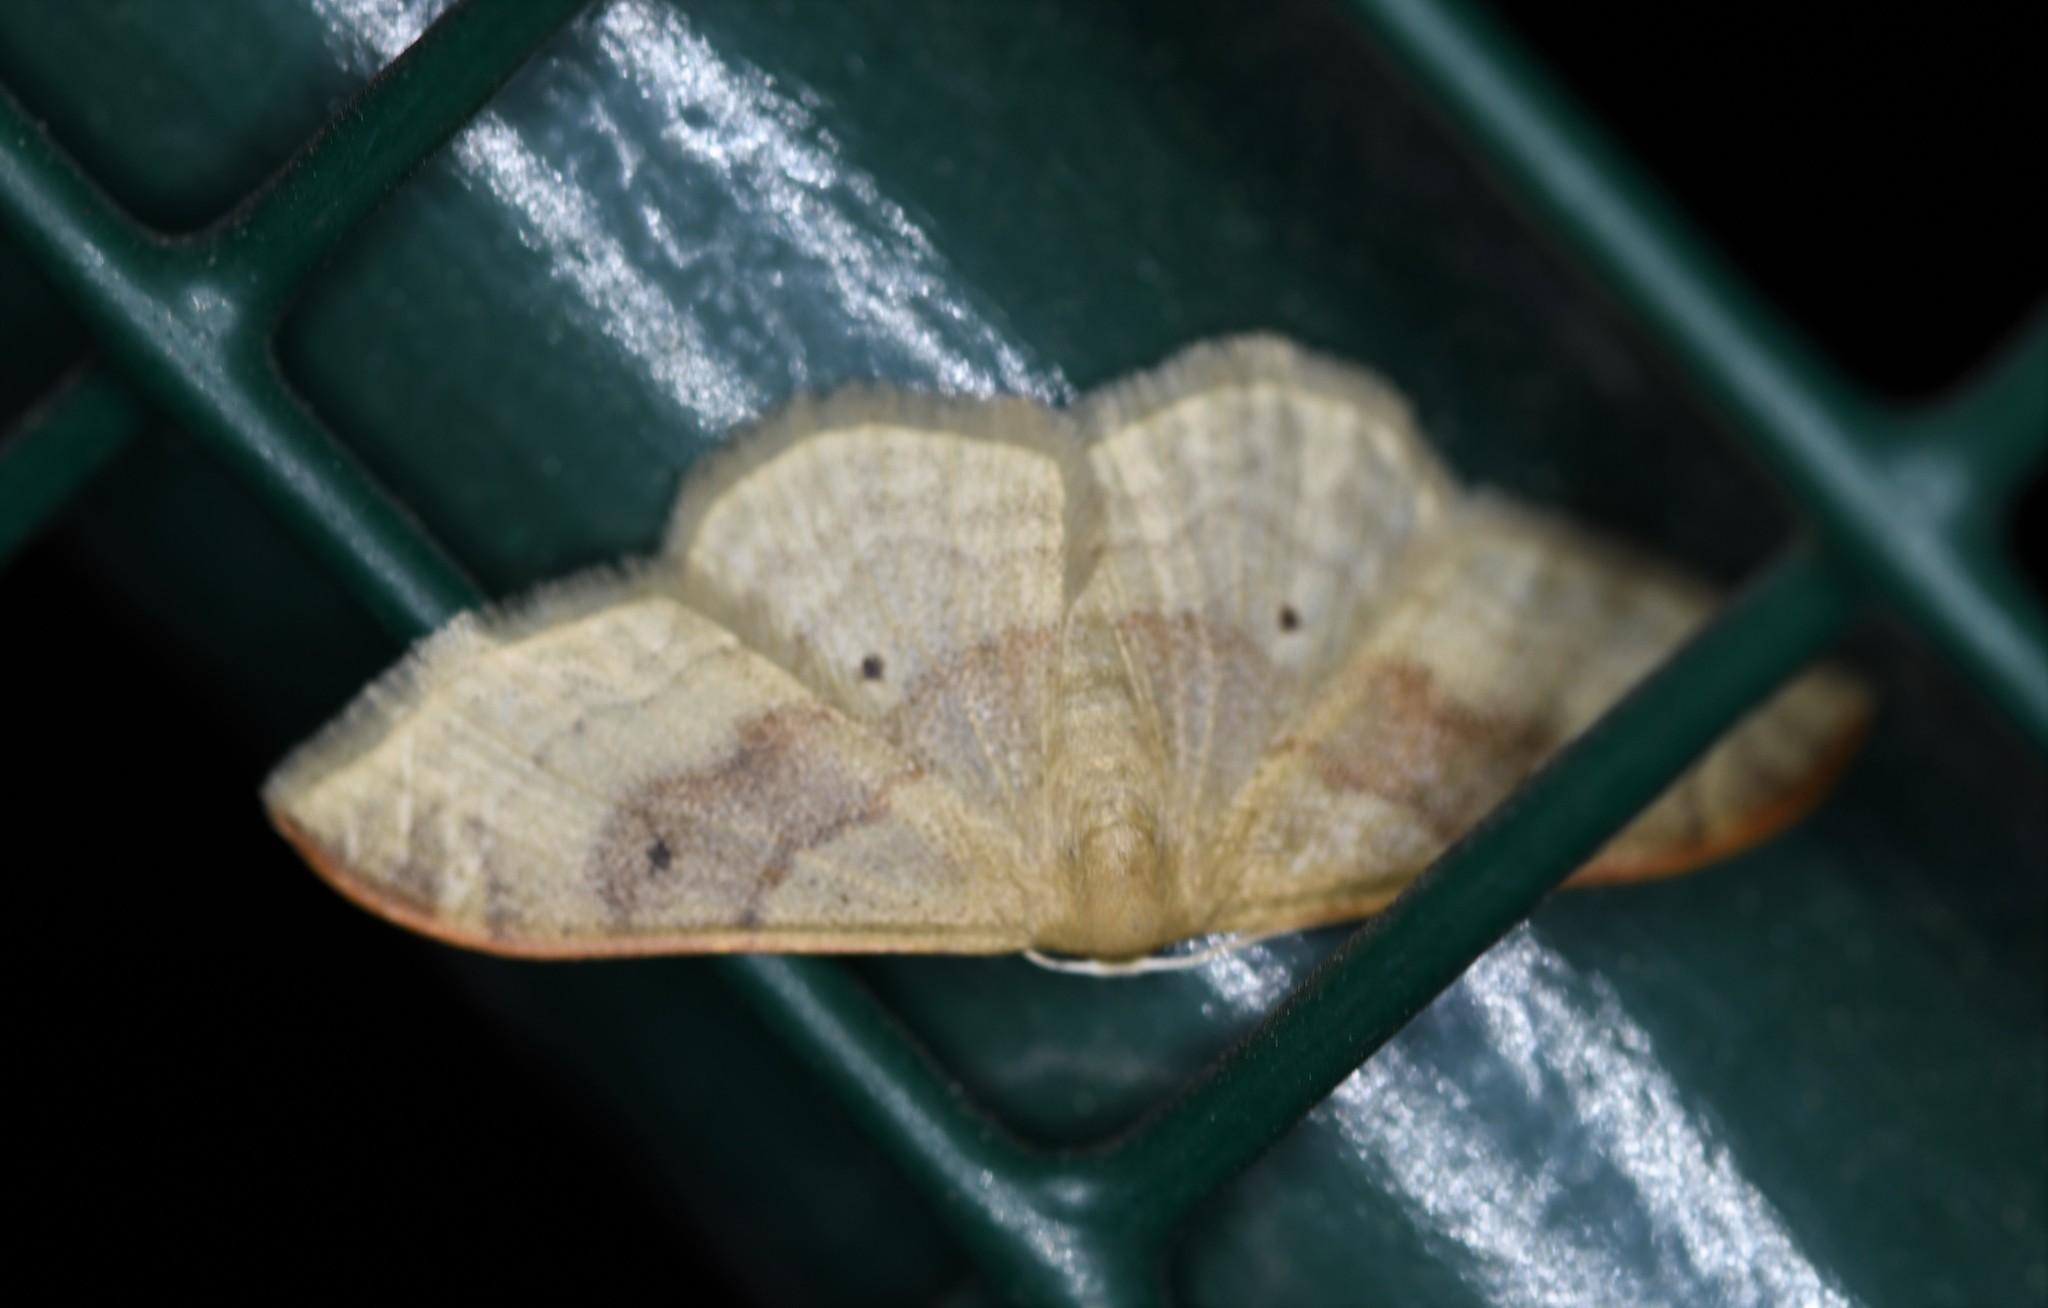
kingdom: Animalia
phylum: Arthropoda
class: Insecta
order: Lepidoptera
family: Geometridae
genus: Idaea
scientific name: Idaea degeneraria
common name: Portland ribbon wave
